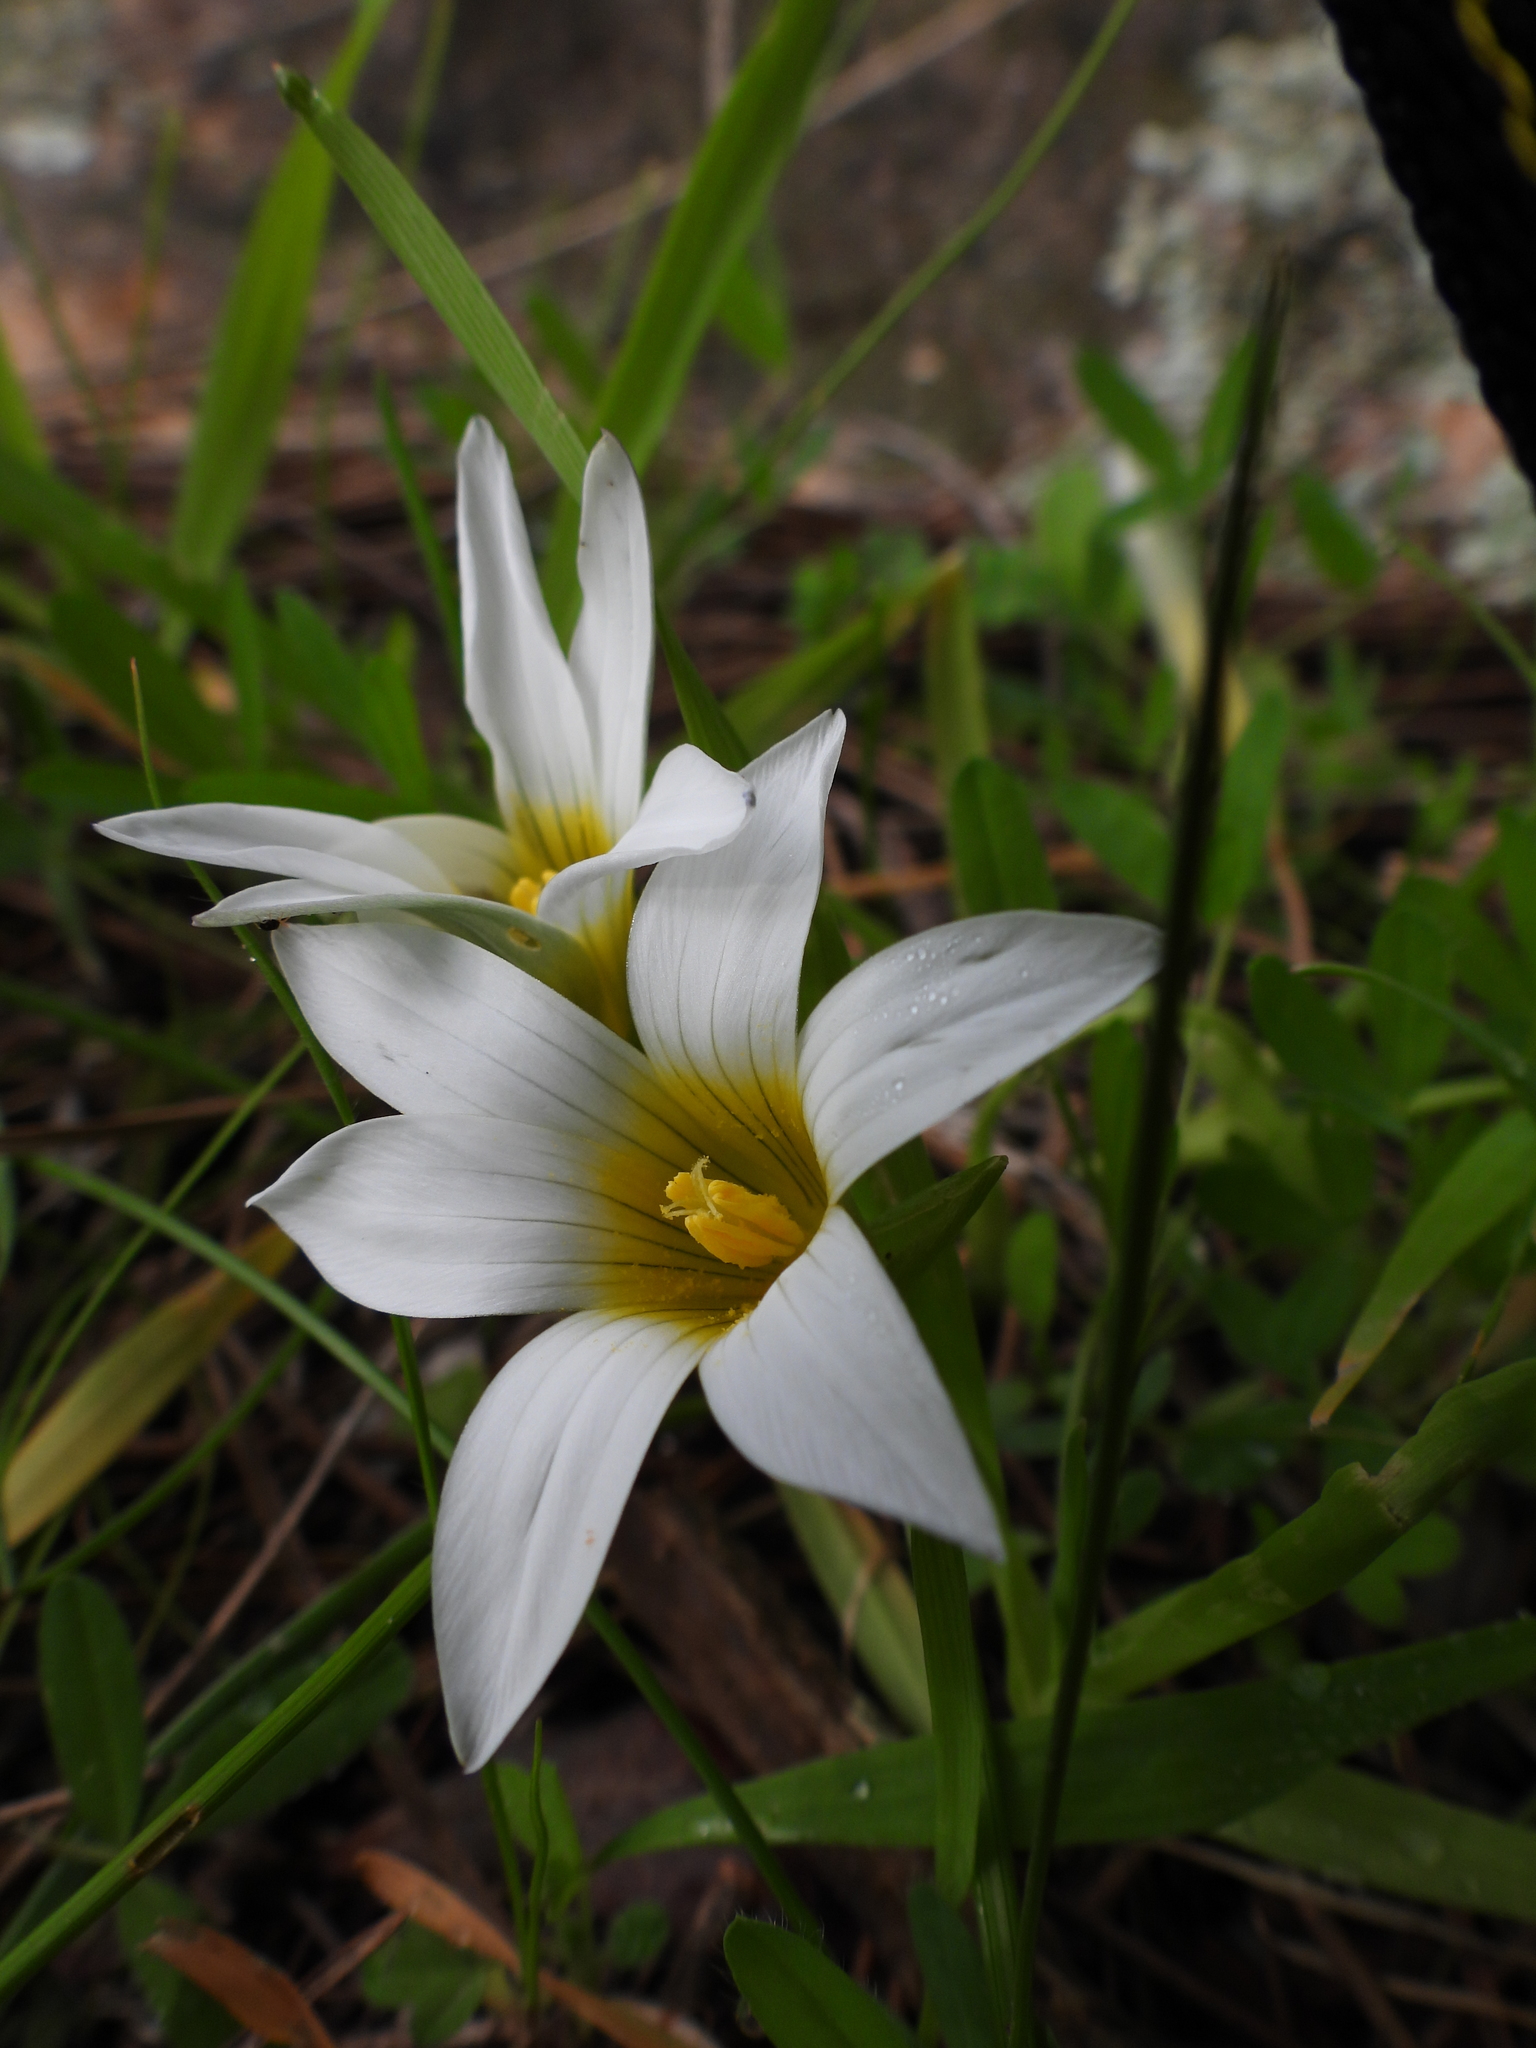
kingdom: Plantae
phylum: Tracheophyta
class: Liliopsida
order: Asparagales
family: Iridaceae
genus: Romulea
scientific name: Romulea flava
